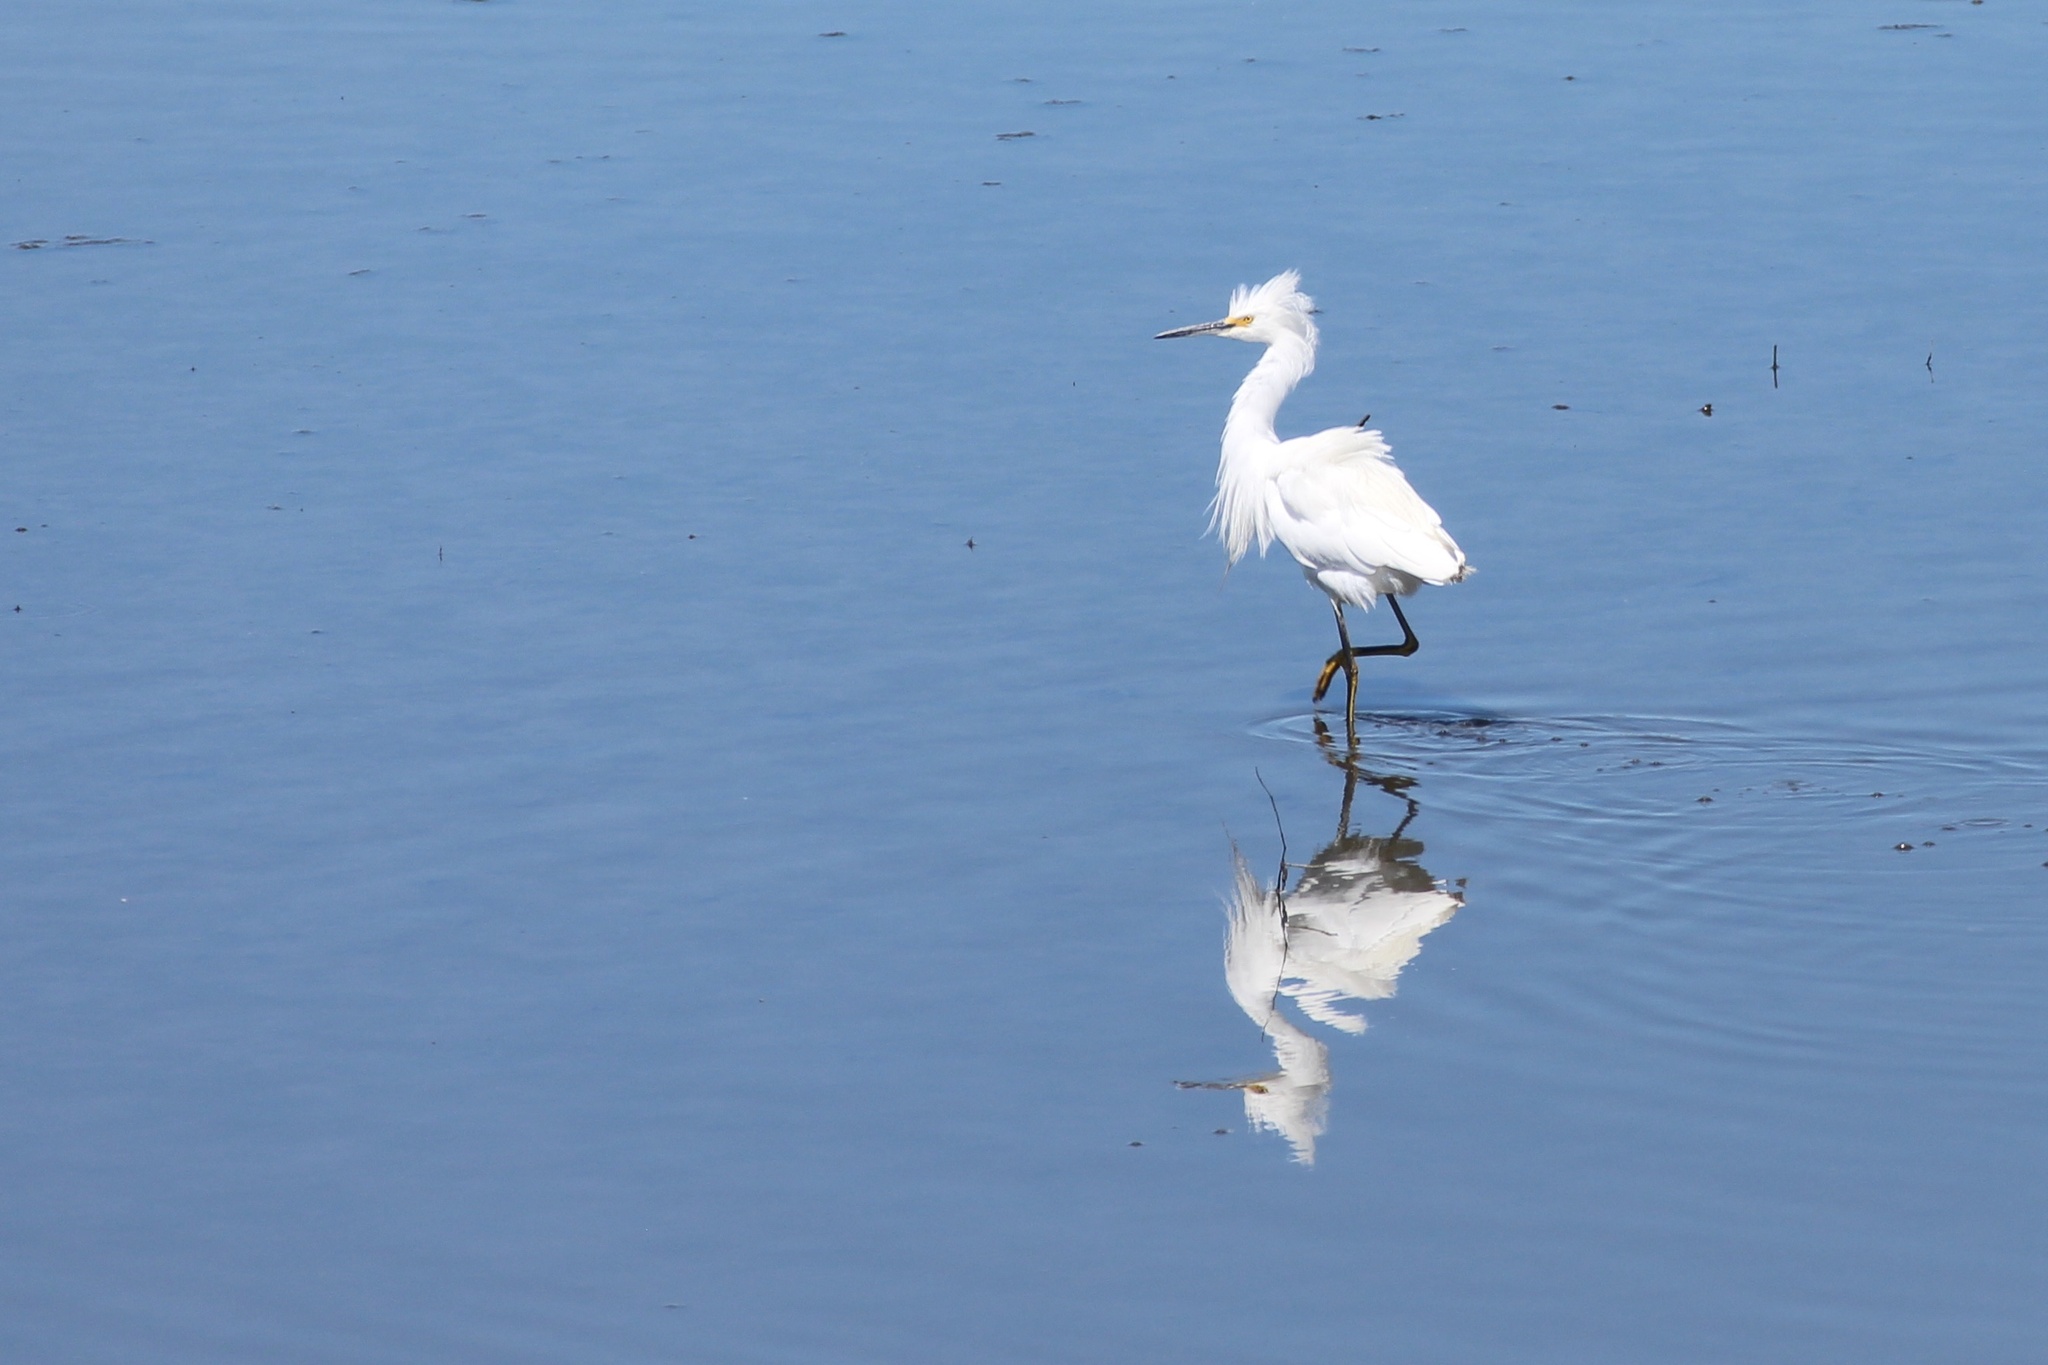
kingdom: Animalia
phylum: Chordata
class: Aves
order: Pelecaniformes
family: Ardeidae
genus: Egretta
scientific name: Egretta thula
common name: Snowy egret
